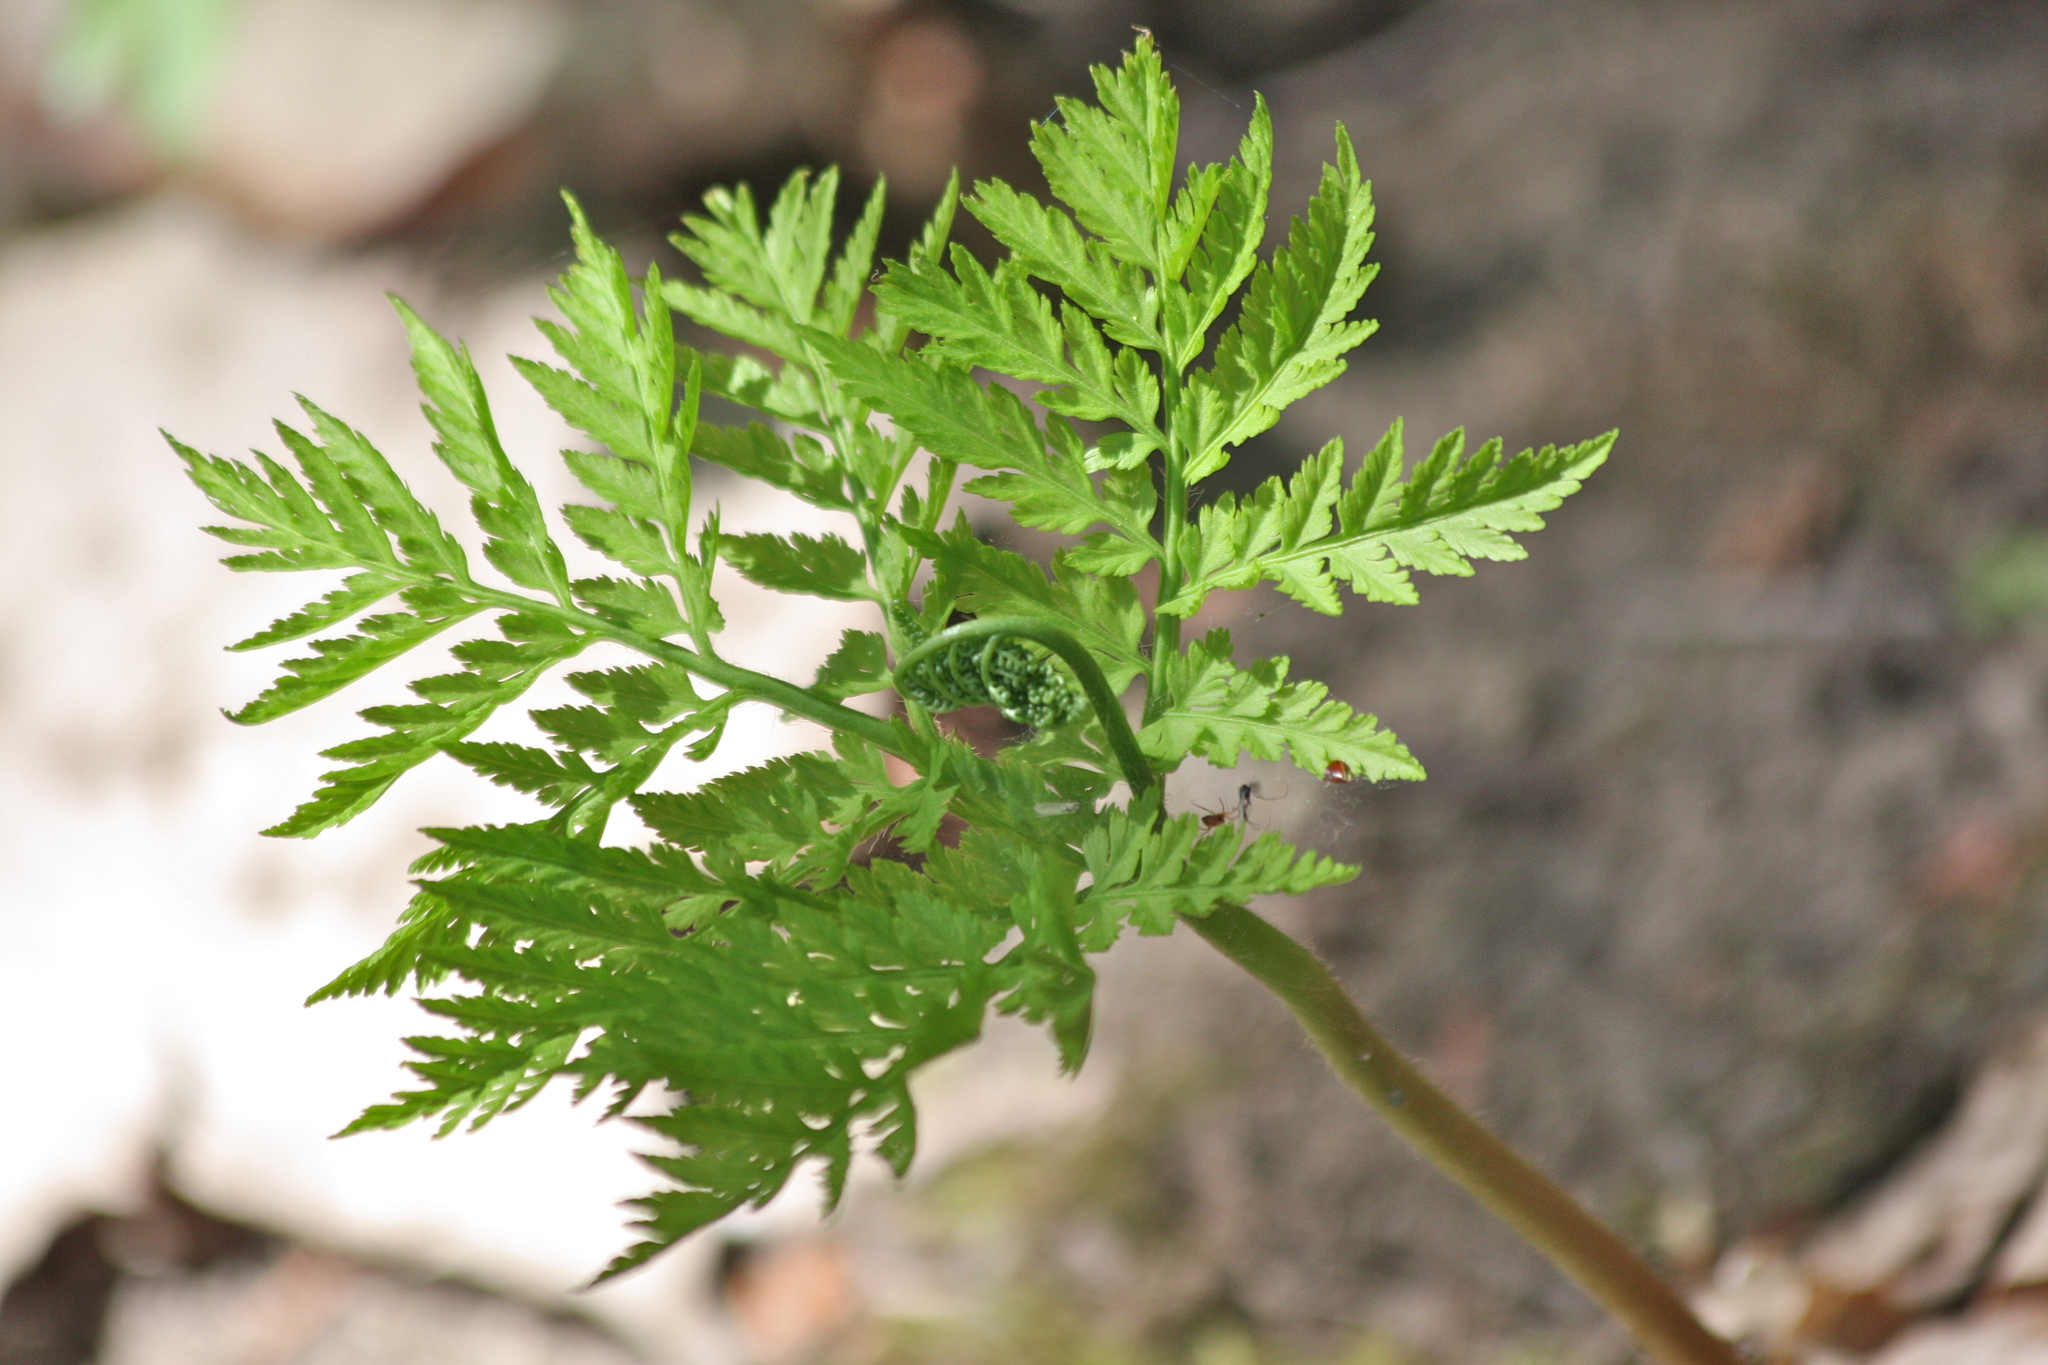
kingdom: Plantae
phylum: Tracheophyta
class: Polypodiopsida
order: Ophioglossales
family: Ophioglossaceae
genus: Botrypus
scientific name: Botrypus virginianus
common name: Common grapefern
